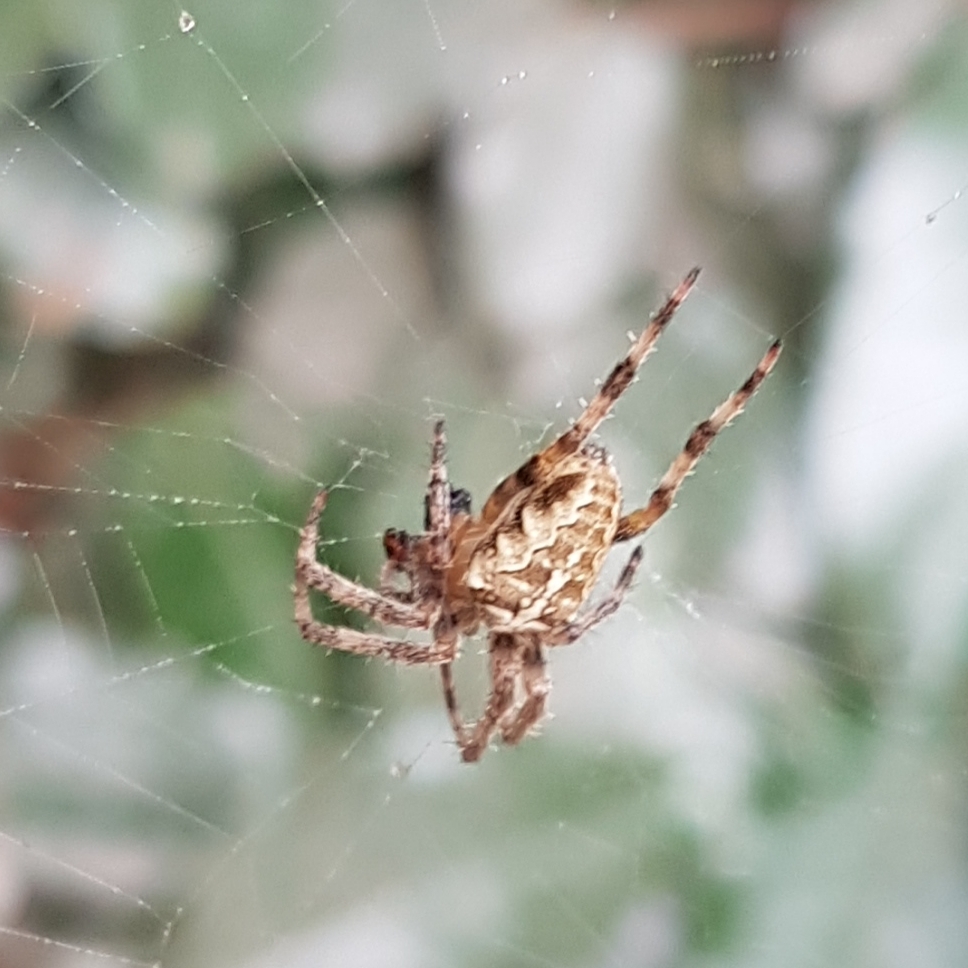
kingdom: Animalia
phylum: Arthropoda
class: Arachnida
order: Araneae
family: Araneidae
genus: Araneus
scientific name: Araneus diadematus
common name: Cross orbweaver
